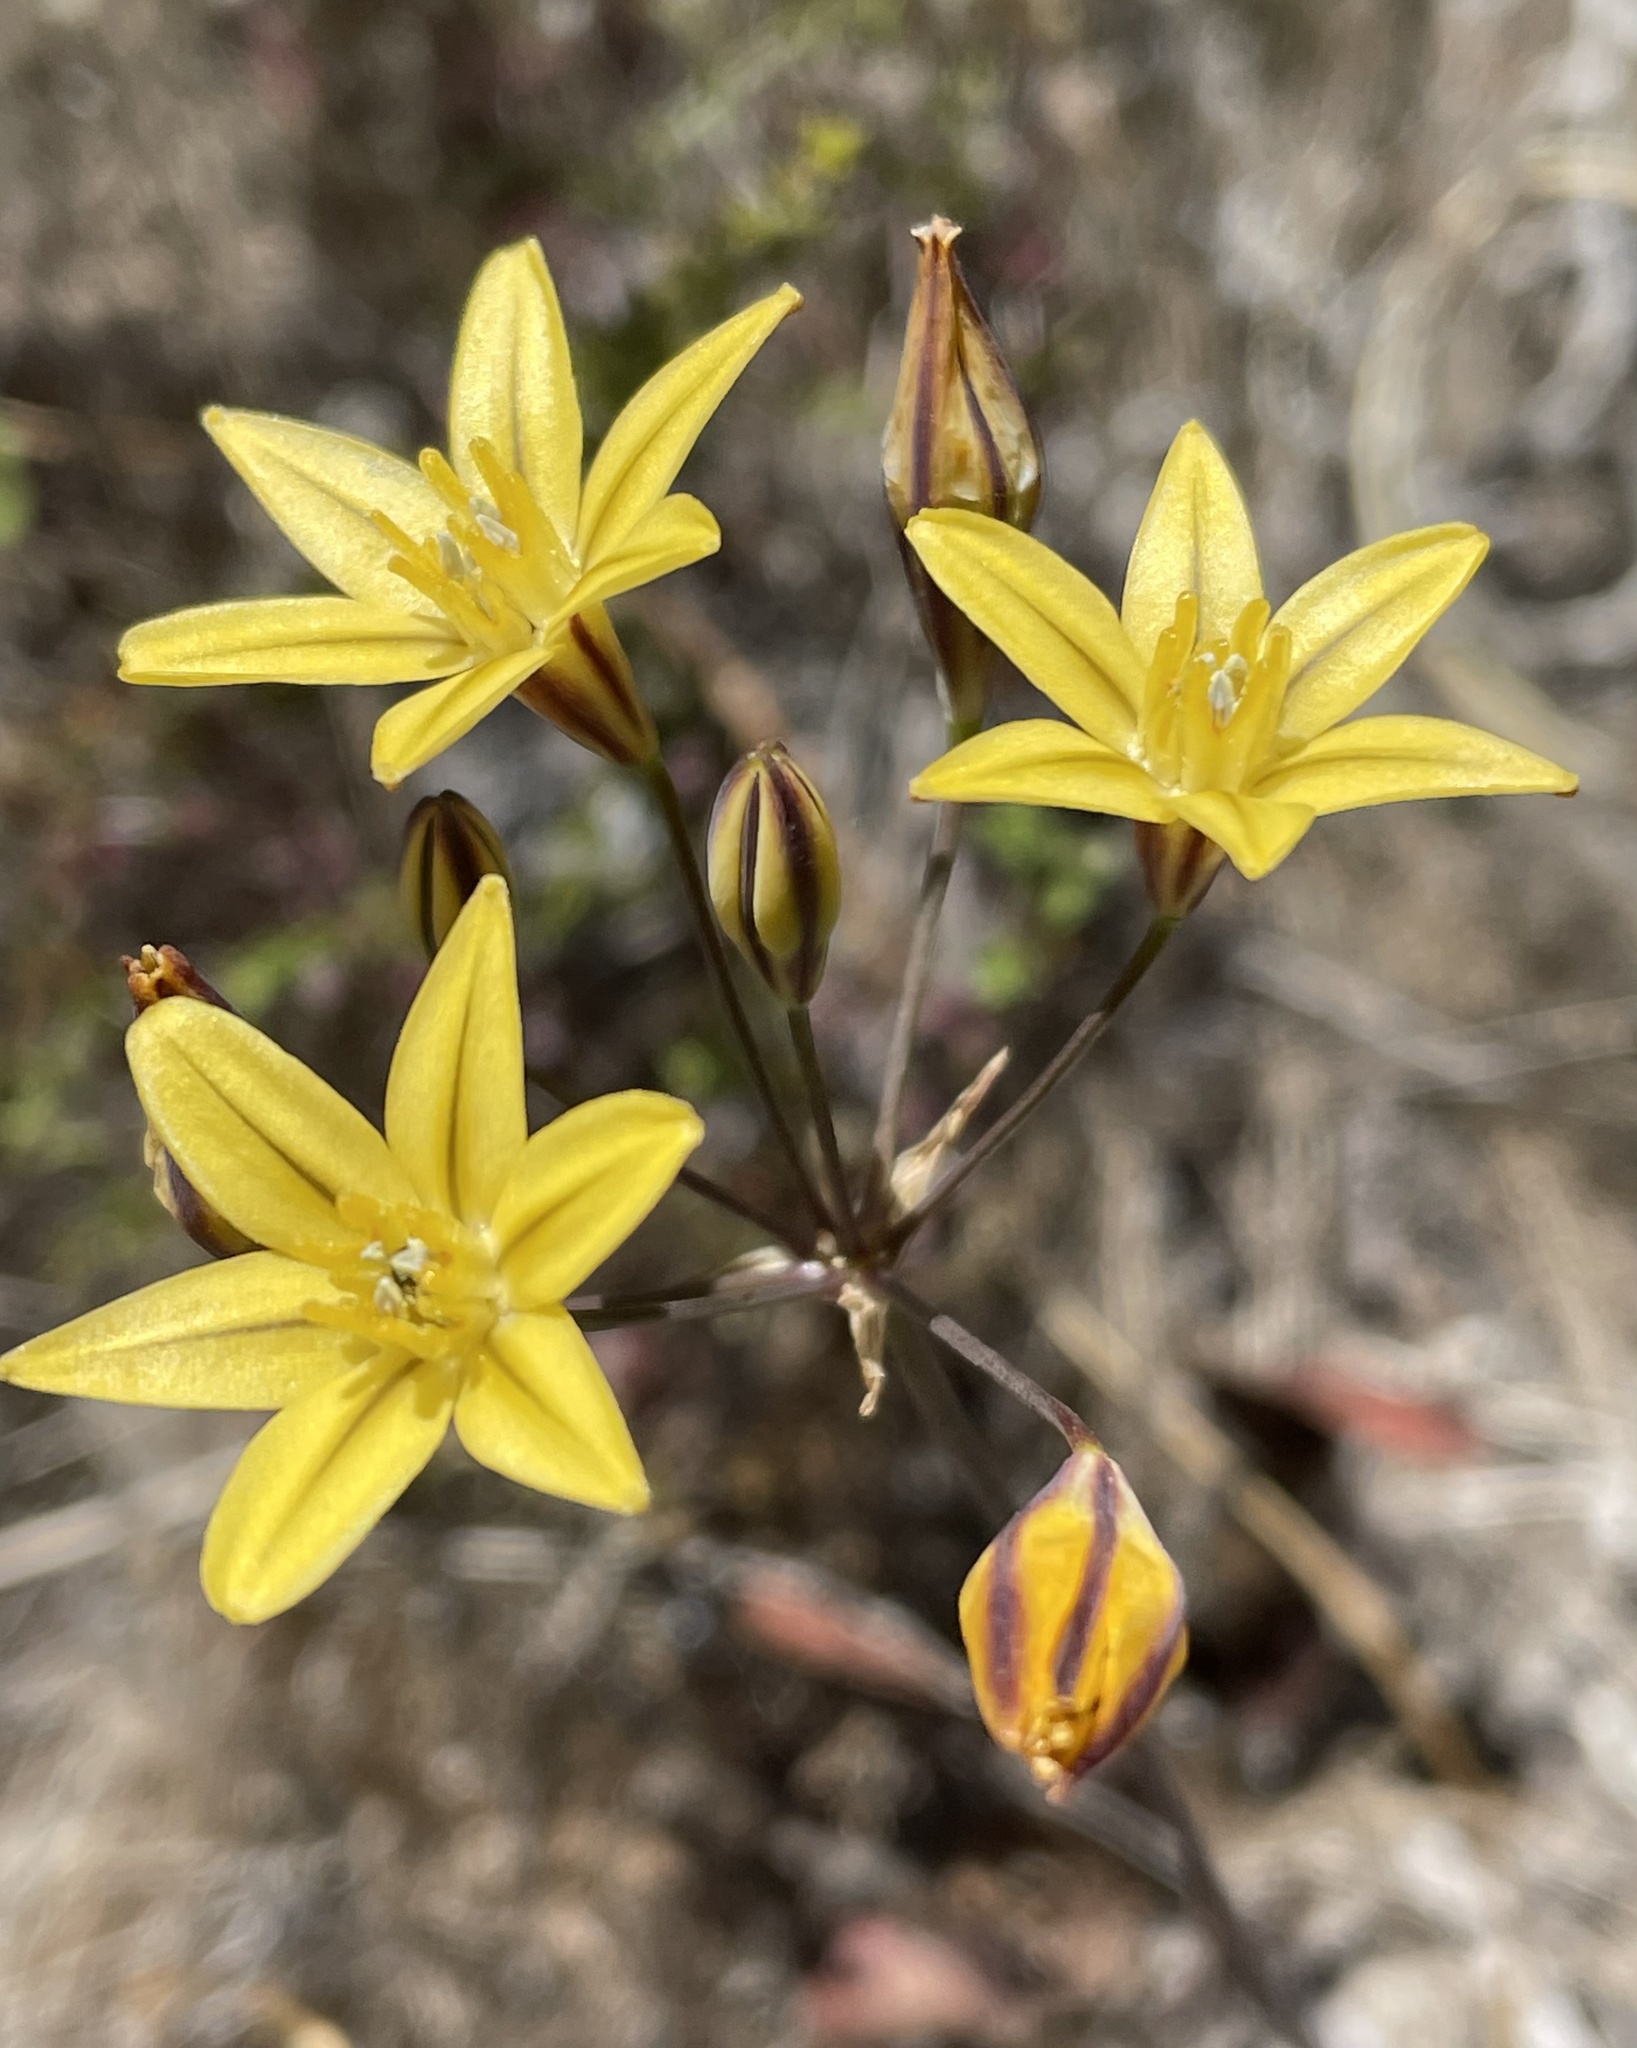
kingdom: Plantae
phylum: Tracheophyta
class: Liliopsida
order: Asparagales
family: Asparagaceae
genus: Triteleia
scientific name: Triteleia ixioides
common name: Yellow-brodiaea
